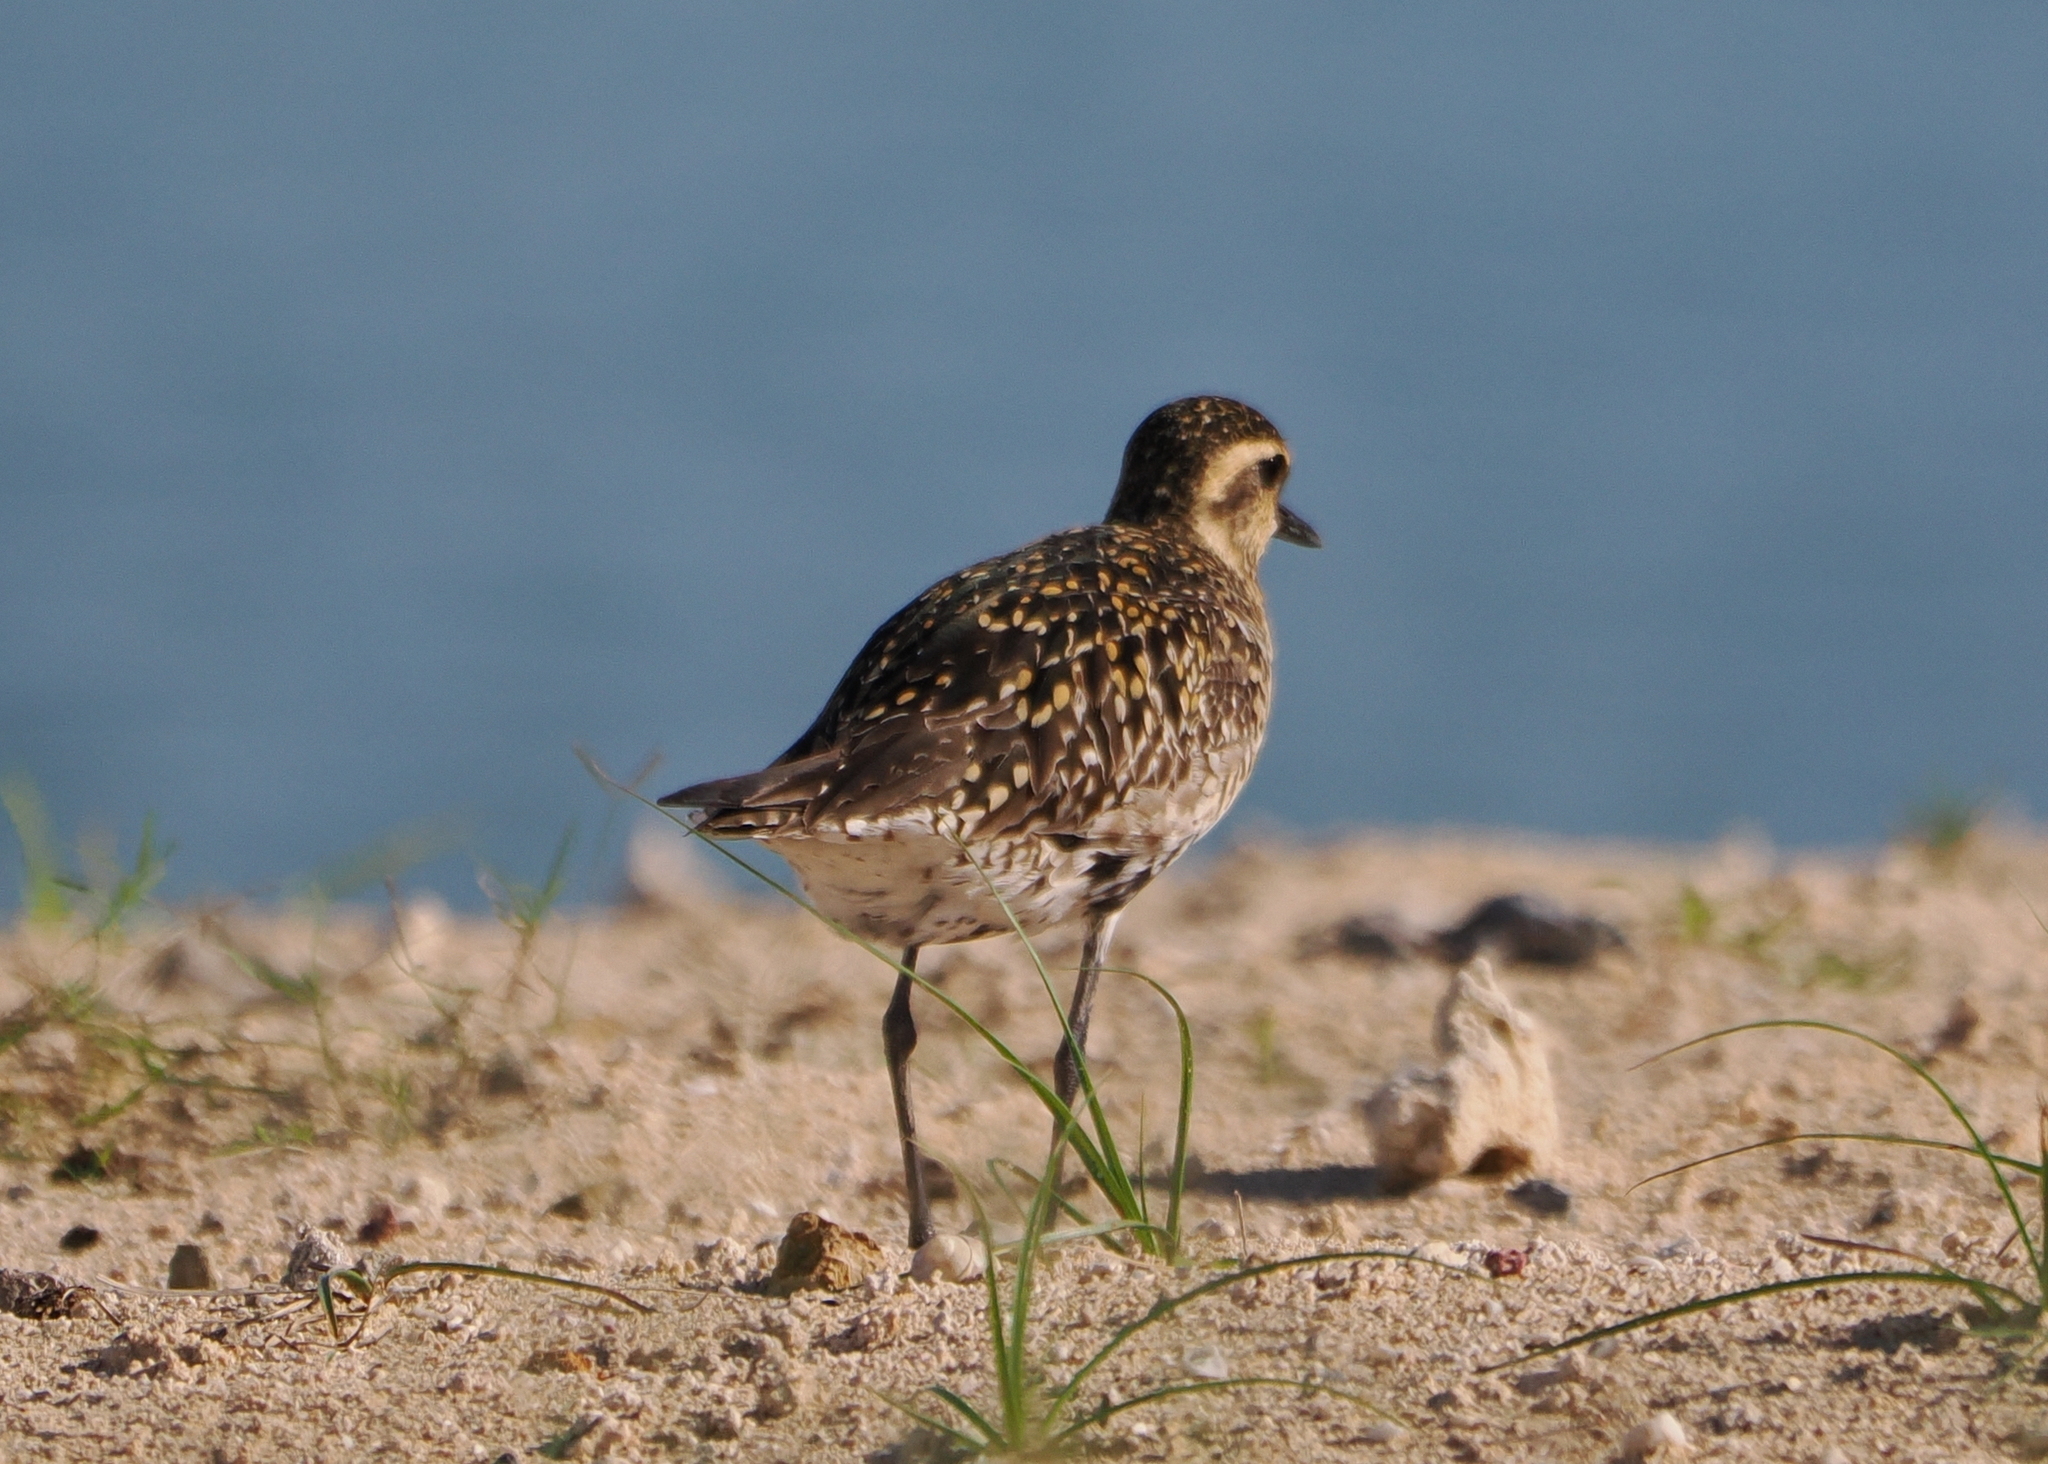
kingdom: Animalia
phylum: Chordata
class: Aves
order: Charadriiformes
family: Charadriidae
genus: Pluvialis
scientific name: Pluvialis fulva
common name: Pacific golden plover
